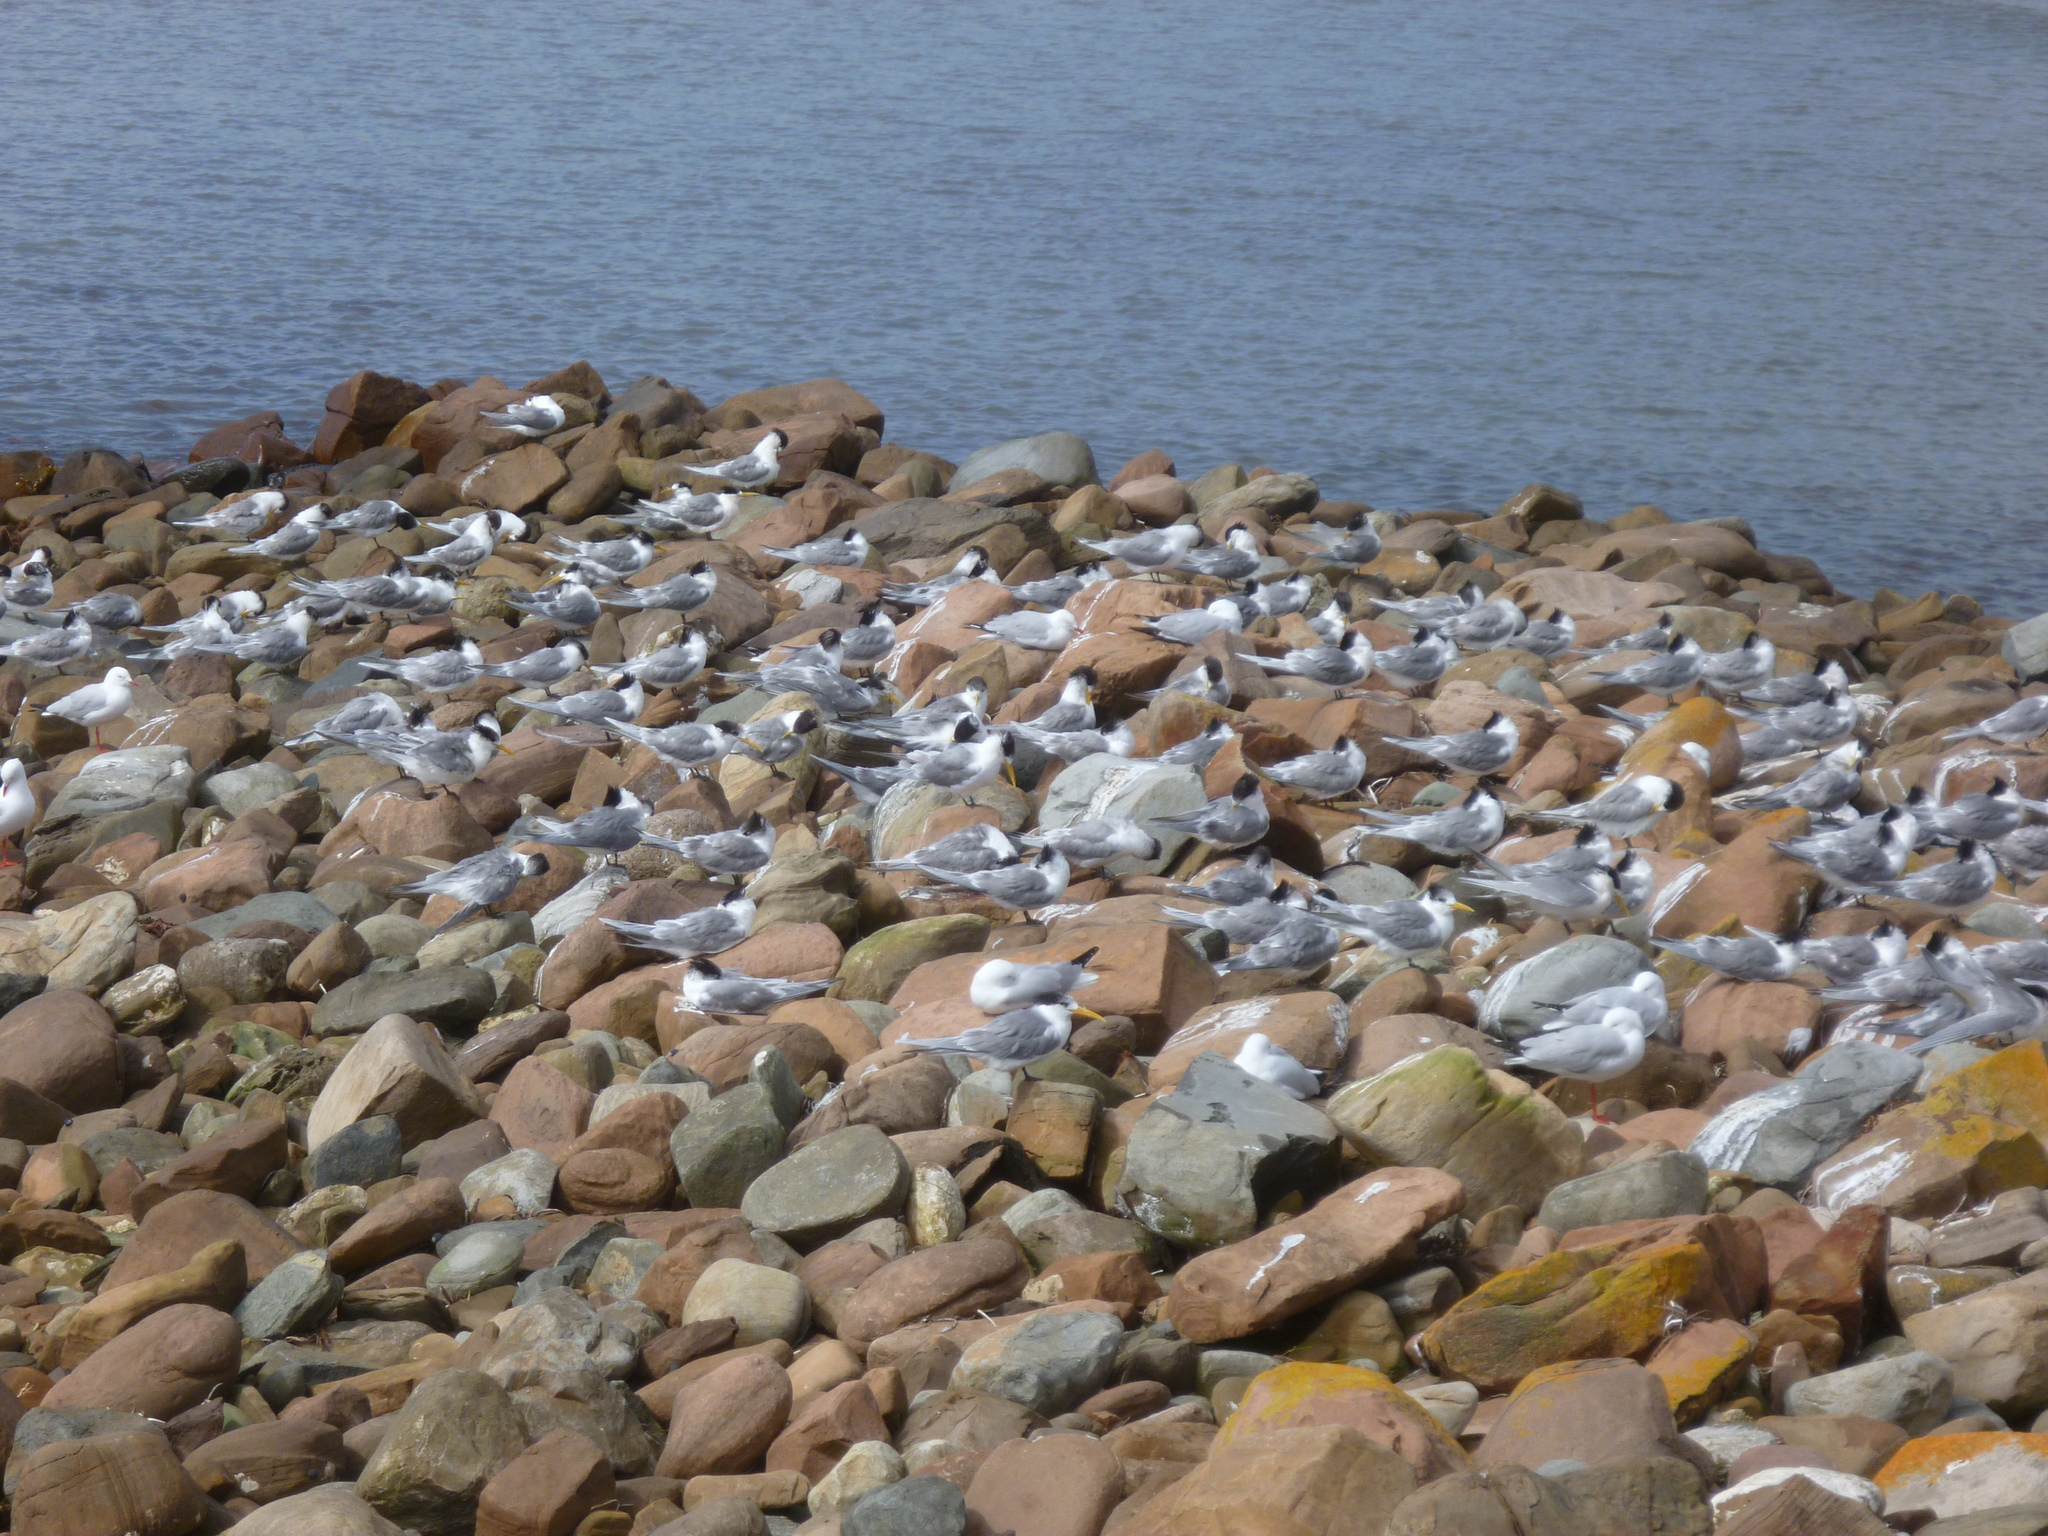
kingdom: Animalia
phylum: Chordata
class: Aves
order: Charadriiformes
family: Laridae
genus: Thalasseus
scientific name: Thalasseus bergii
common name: Greater crested tern
